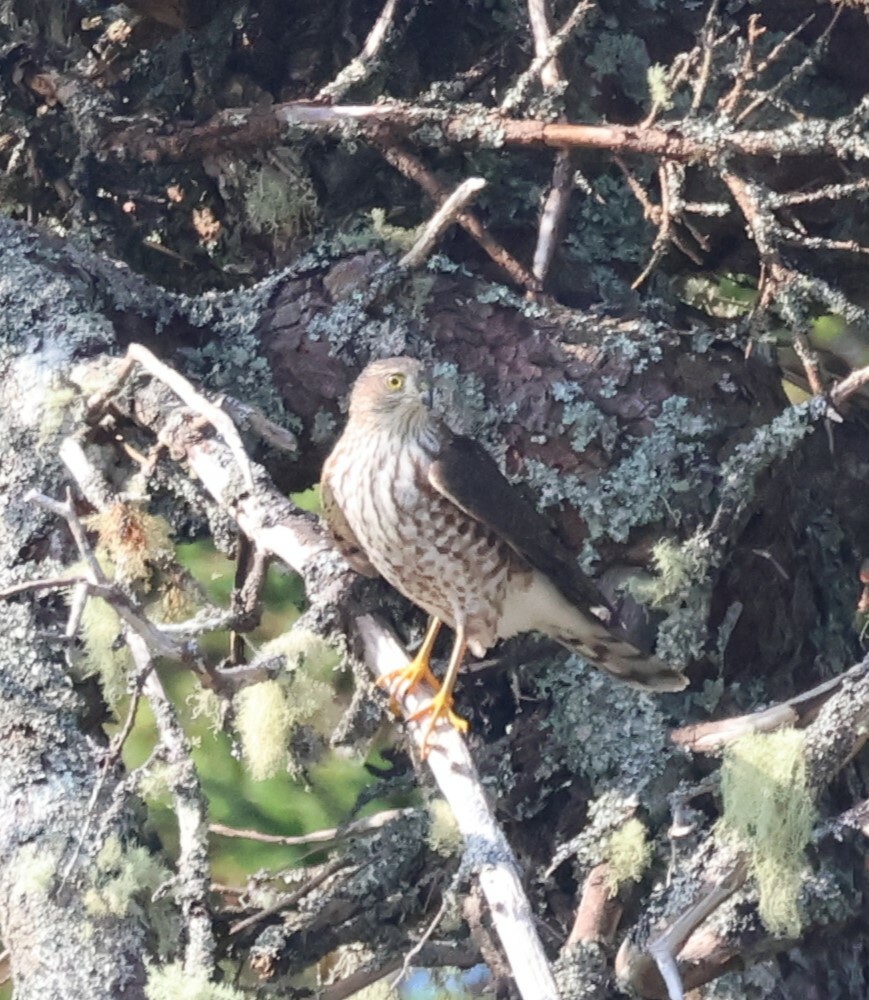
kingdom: Animalia
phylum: Chordata
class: Aves
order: Accipitriformes
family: Accipitridae
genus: Accipiter
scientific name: Accipiter striatus
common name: Sharp-shinned hawk
